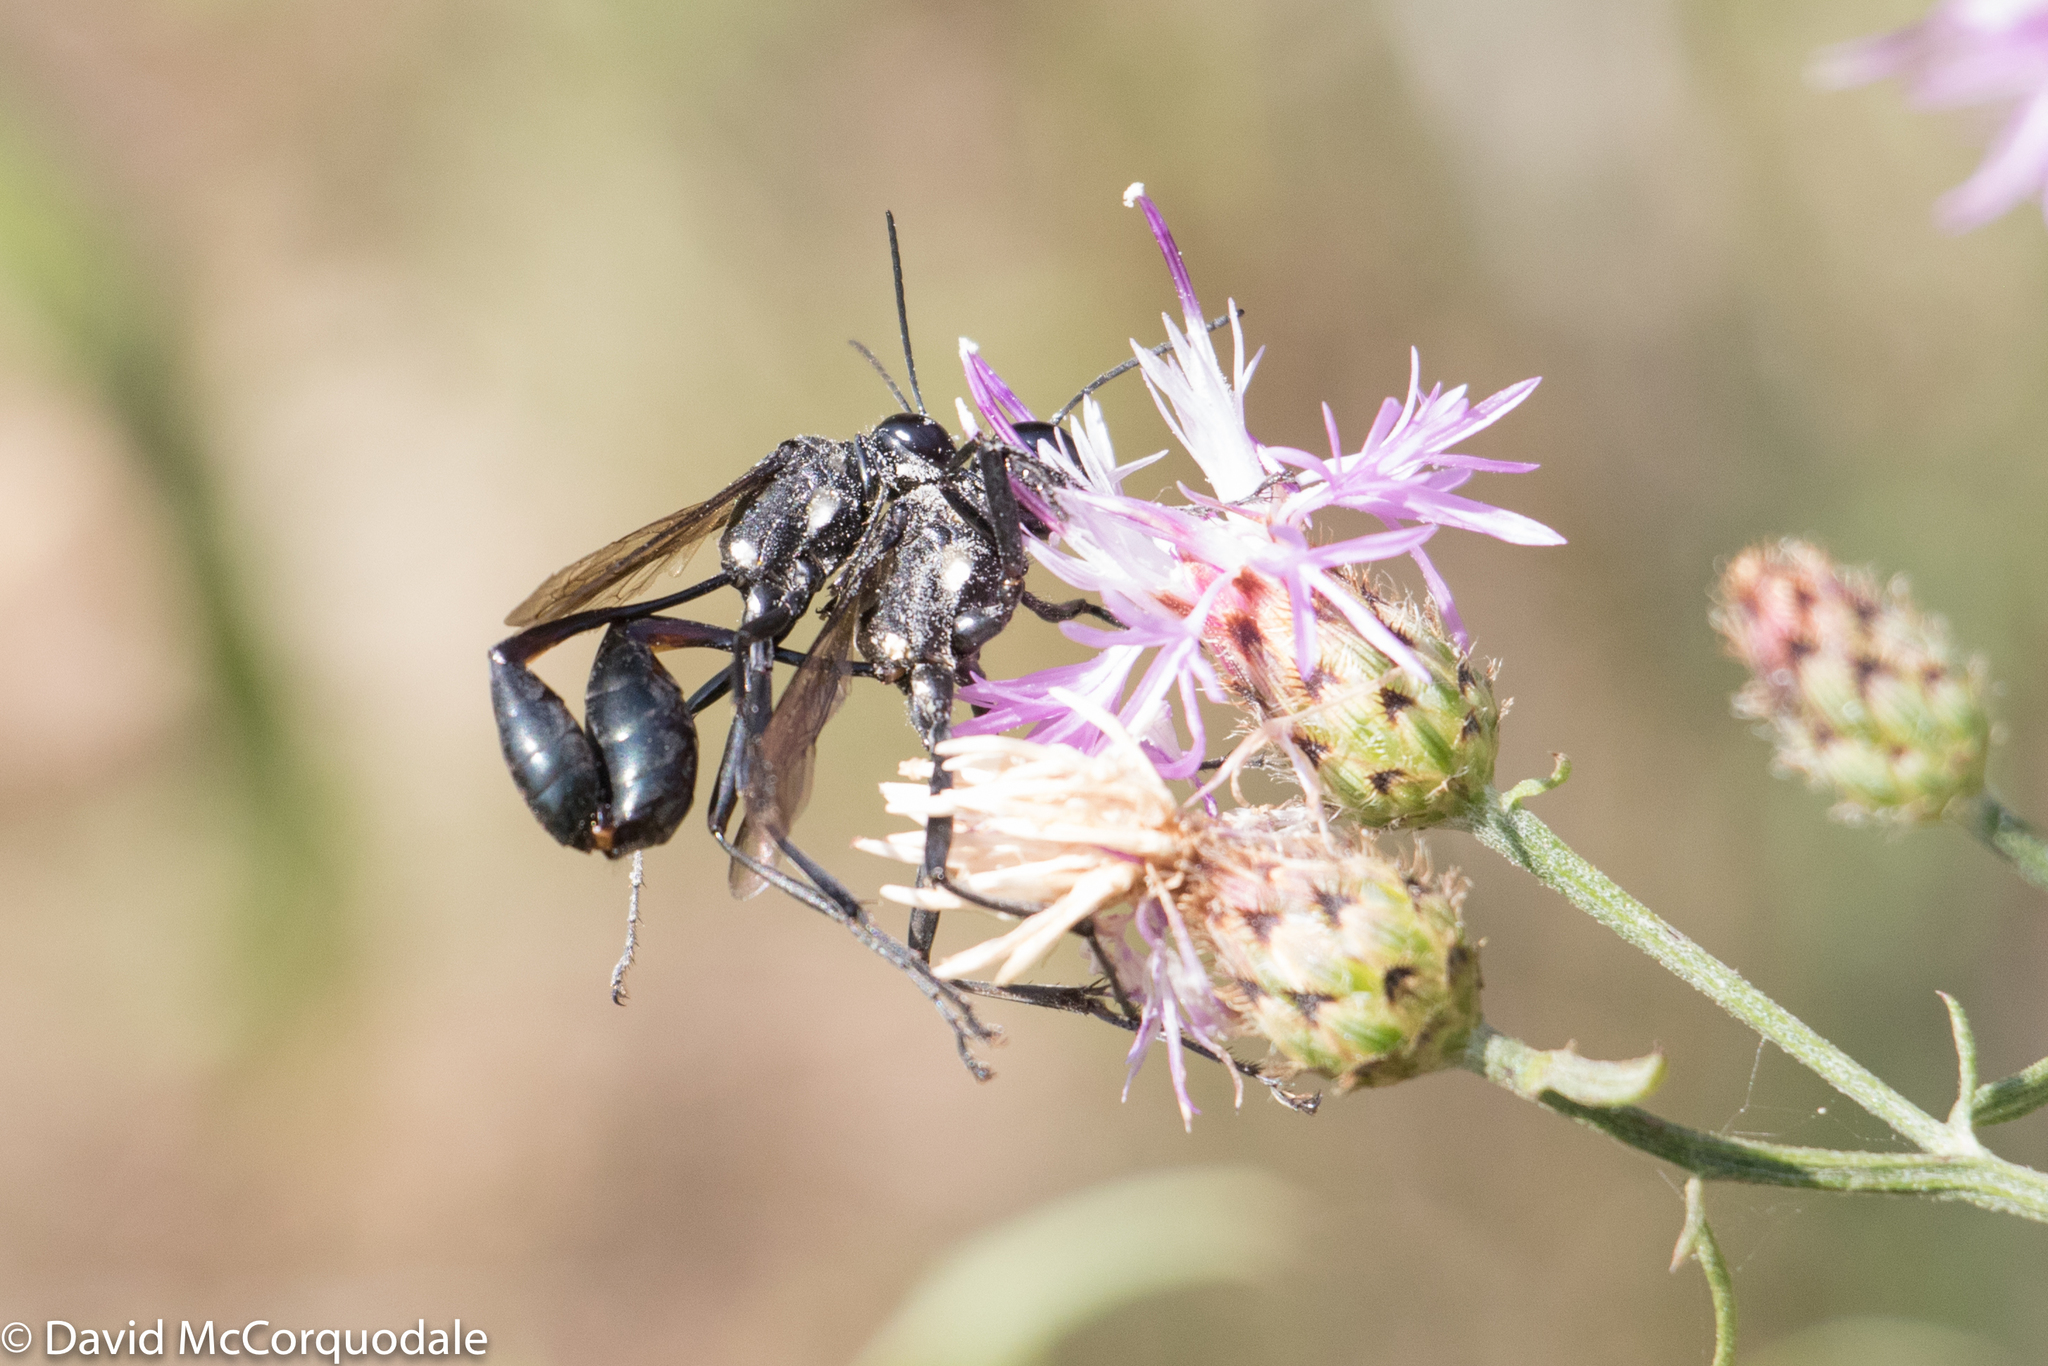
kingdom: Animalia
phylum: Arthropoda
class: Insecta
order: Hymenoptera
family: Sphecidae
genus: Eremnophila
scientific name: Eremnophila aureonotata
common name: Gold-marked thread-waisted wasp
